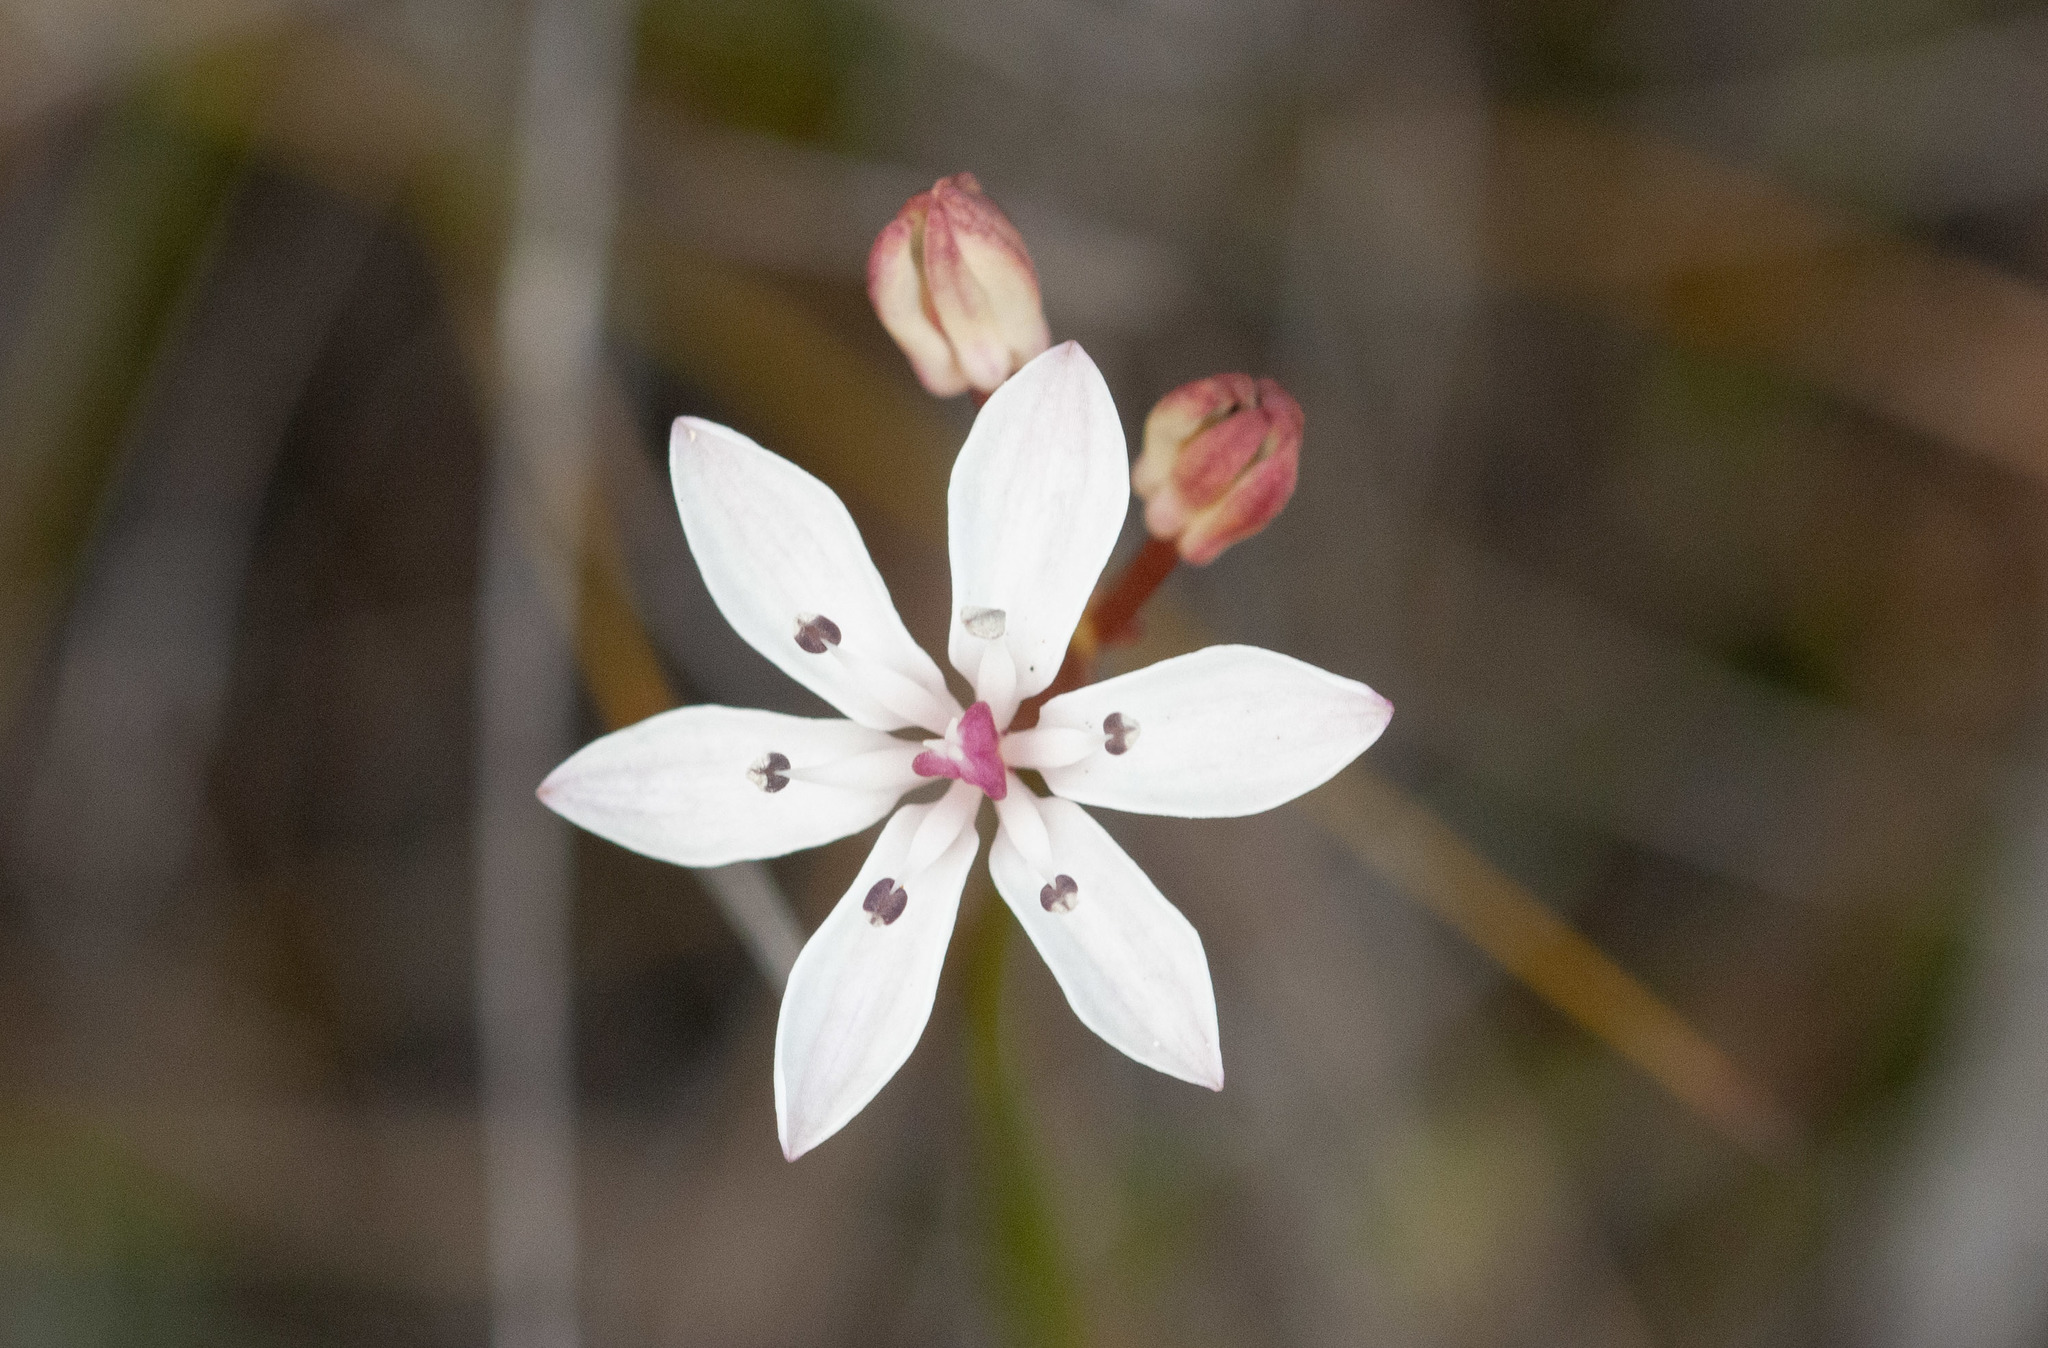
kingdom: Plantae
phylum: Tracheophyta
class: Liliopsida
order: Liliales
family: Colchicaceae
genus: Burchardia
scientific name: Burchardia umbellata
